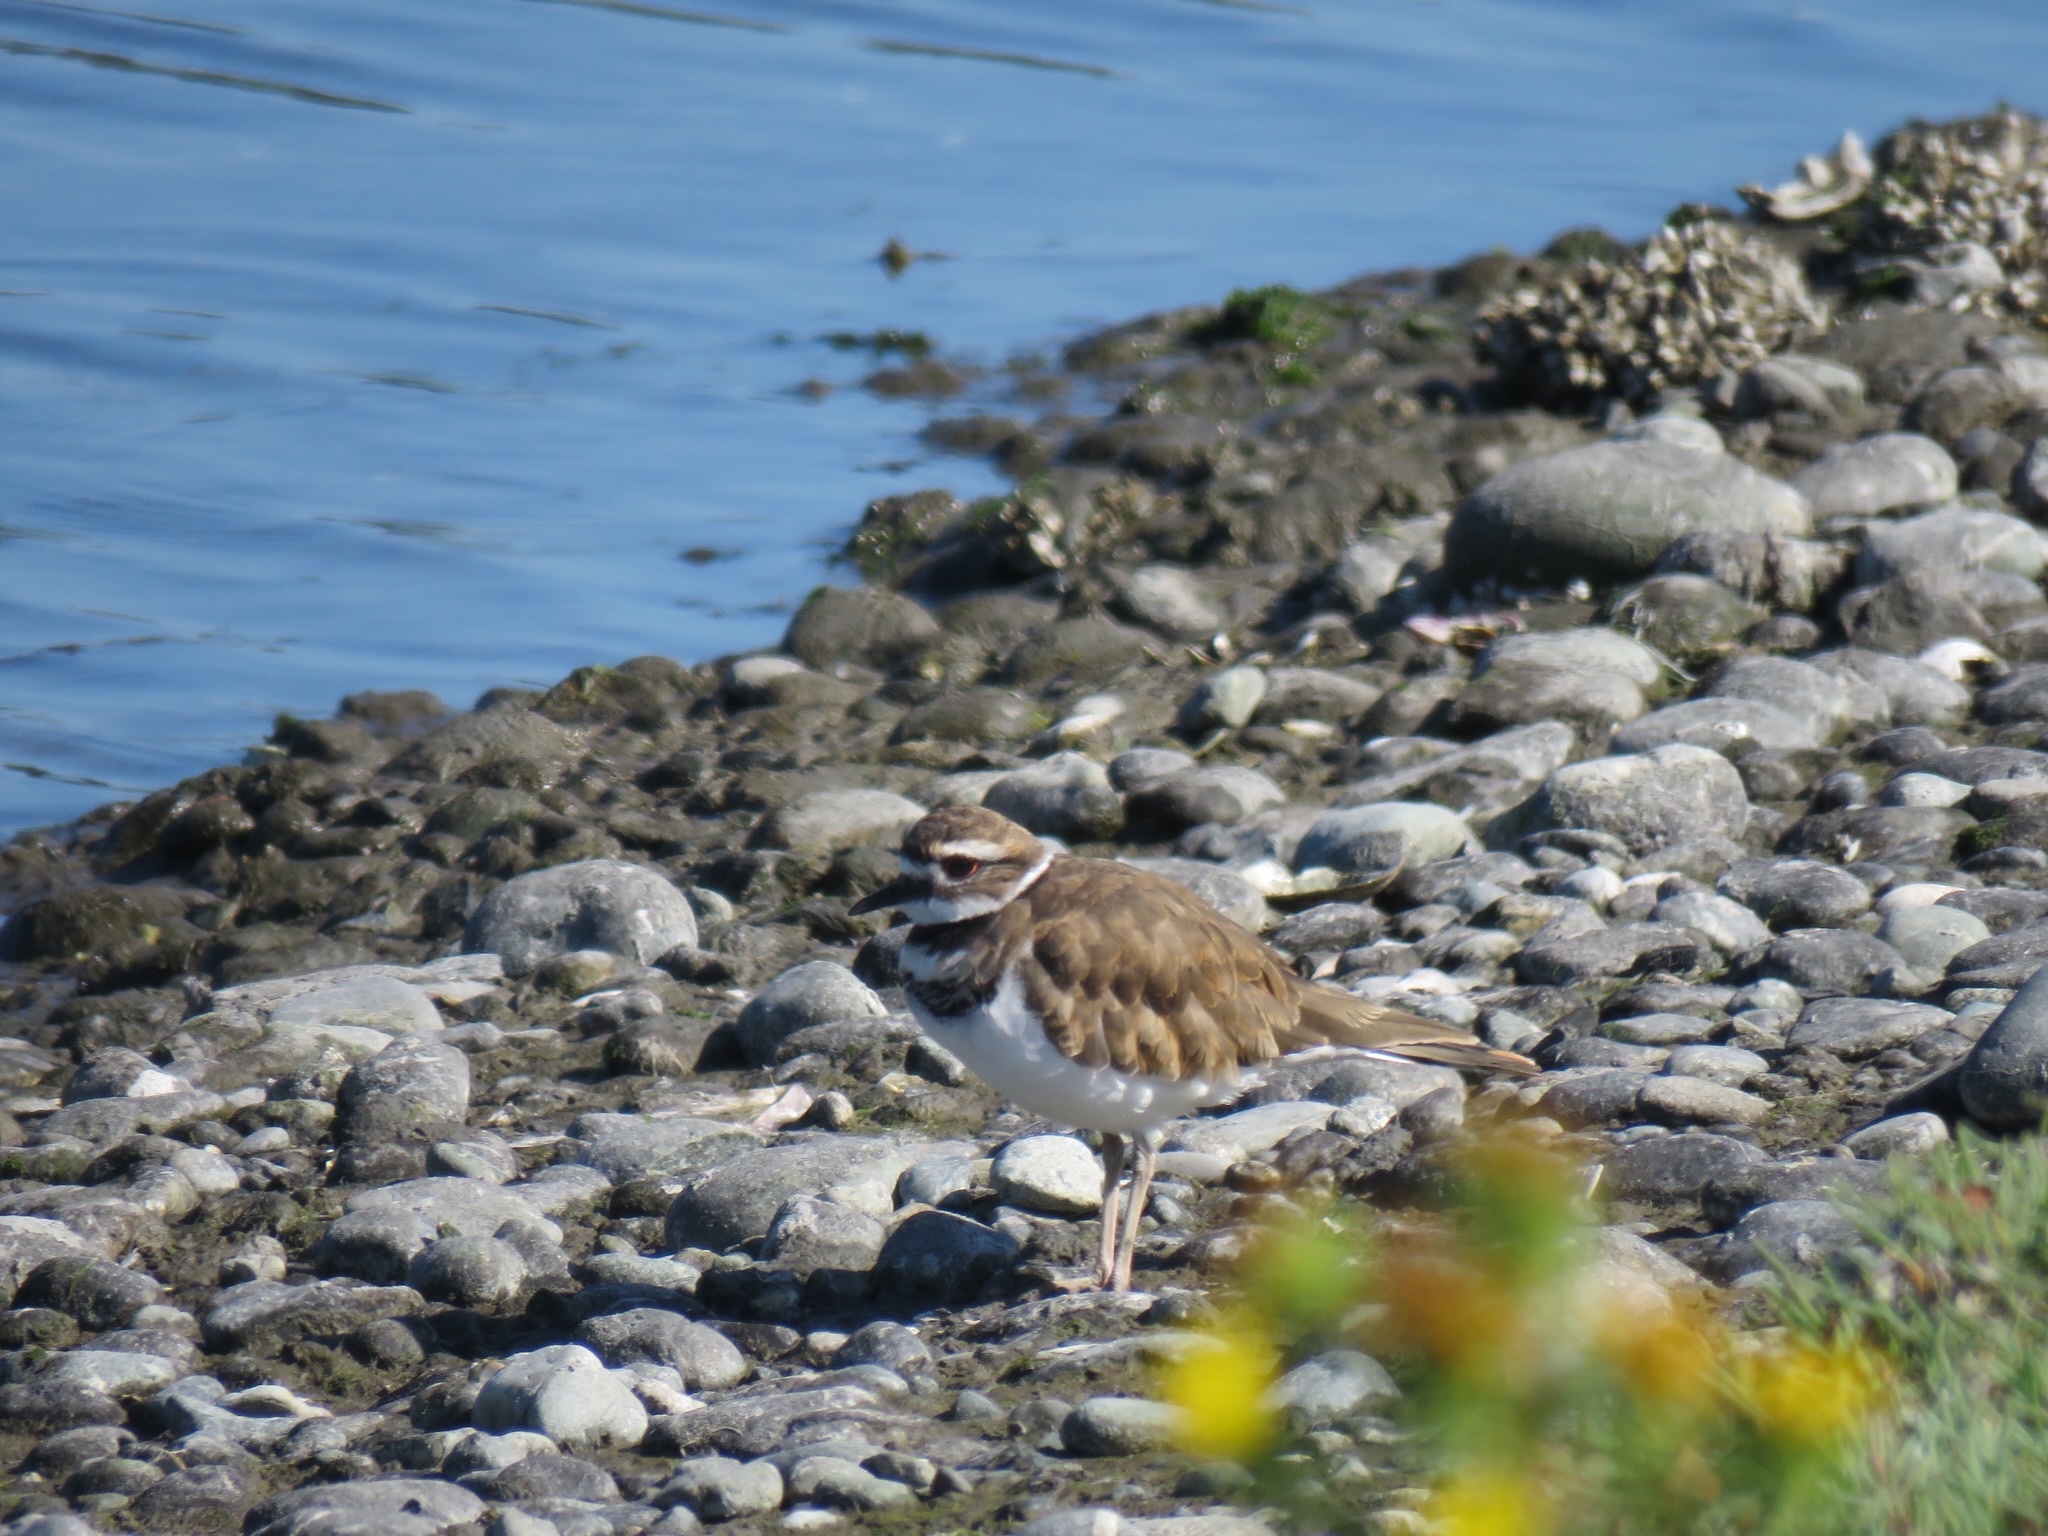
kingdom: Animalia
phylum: Chordata
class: Aves
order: Charadriiformes
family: Charadriidae
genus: Charadrius
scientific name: Charadrius vociferus
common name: Killdeer
